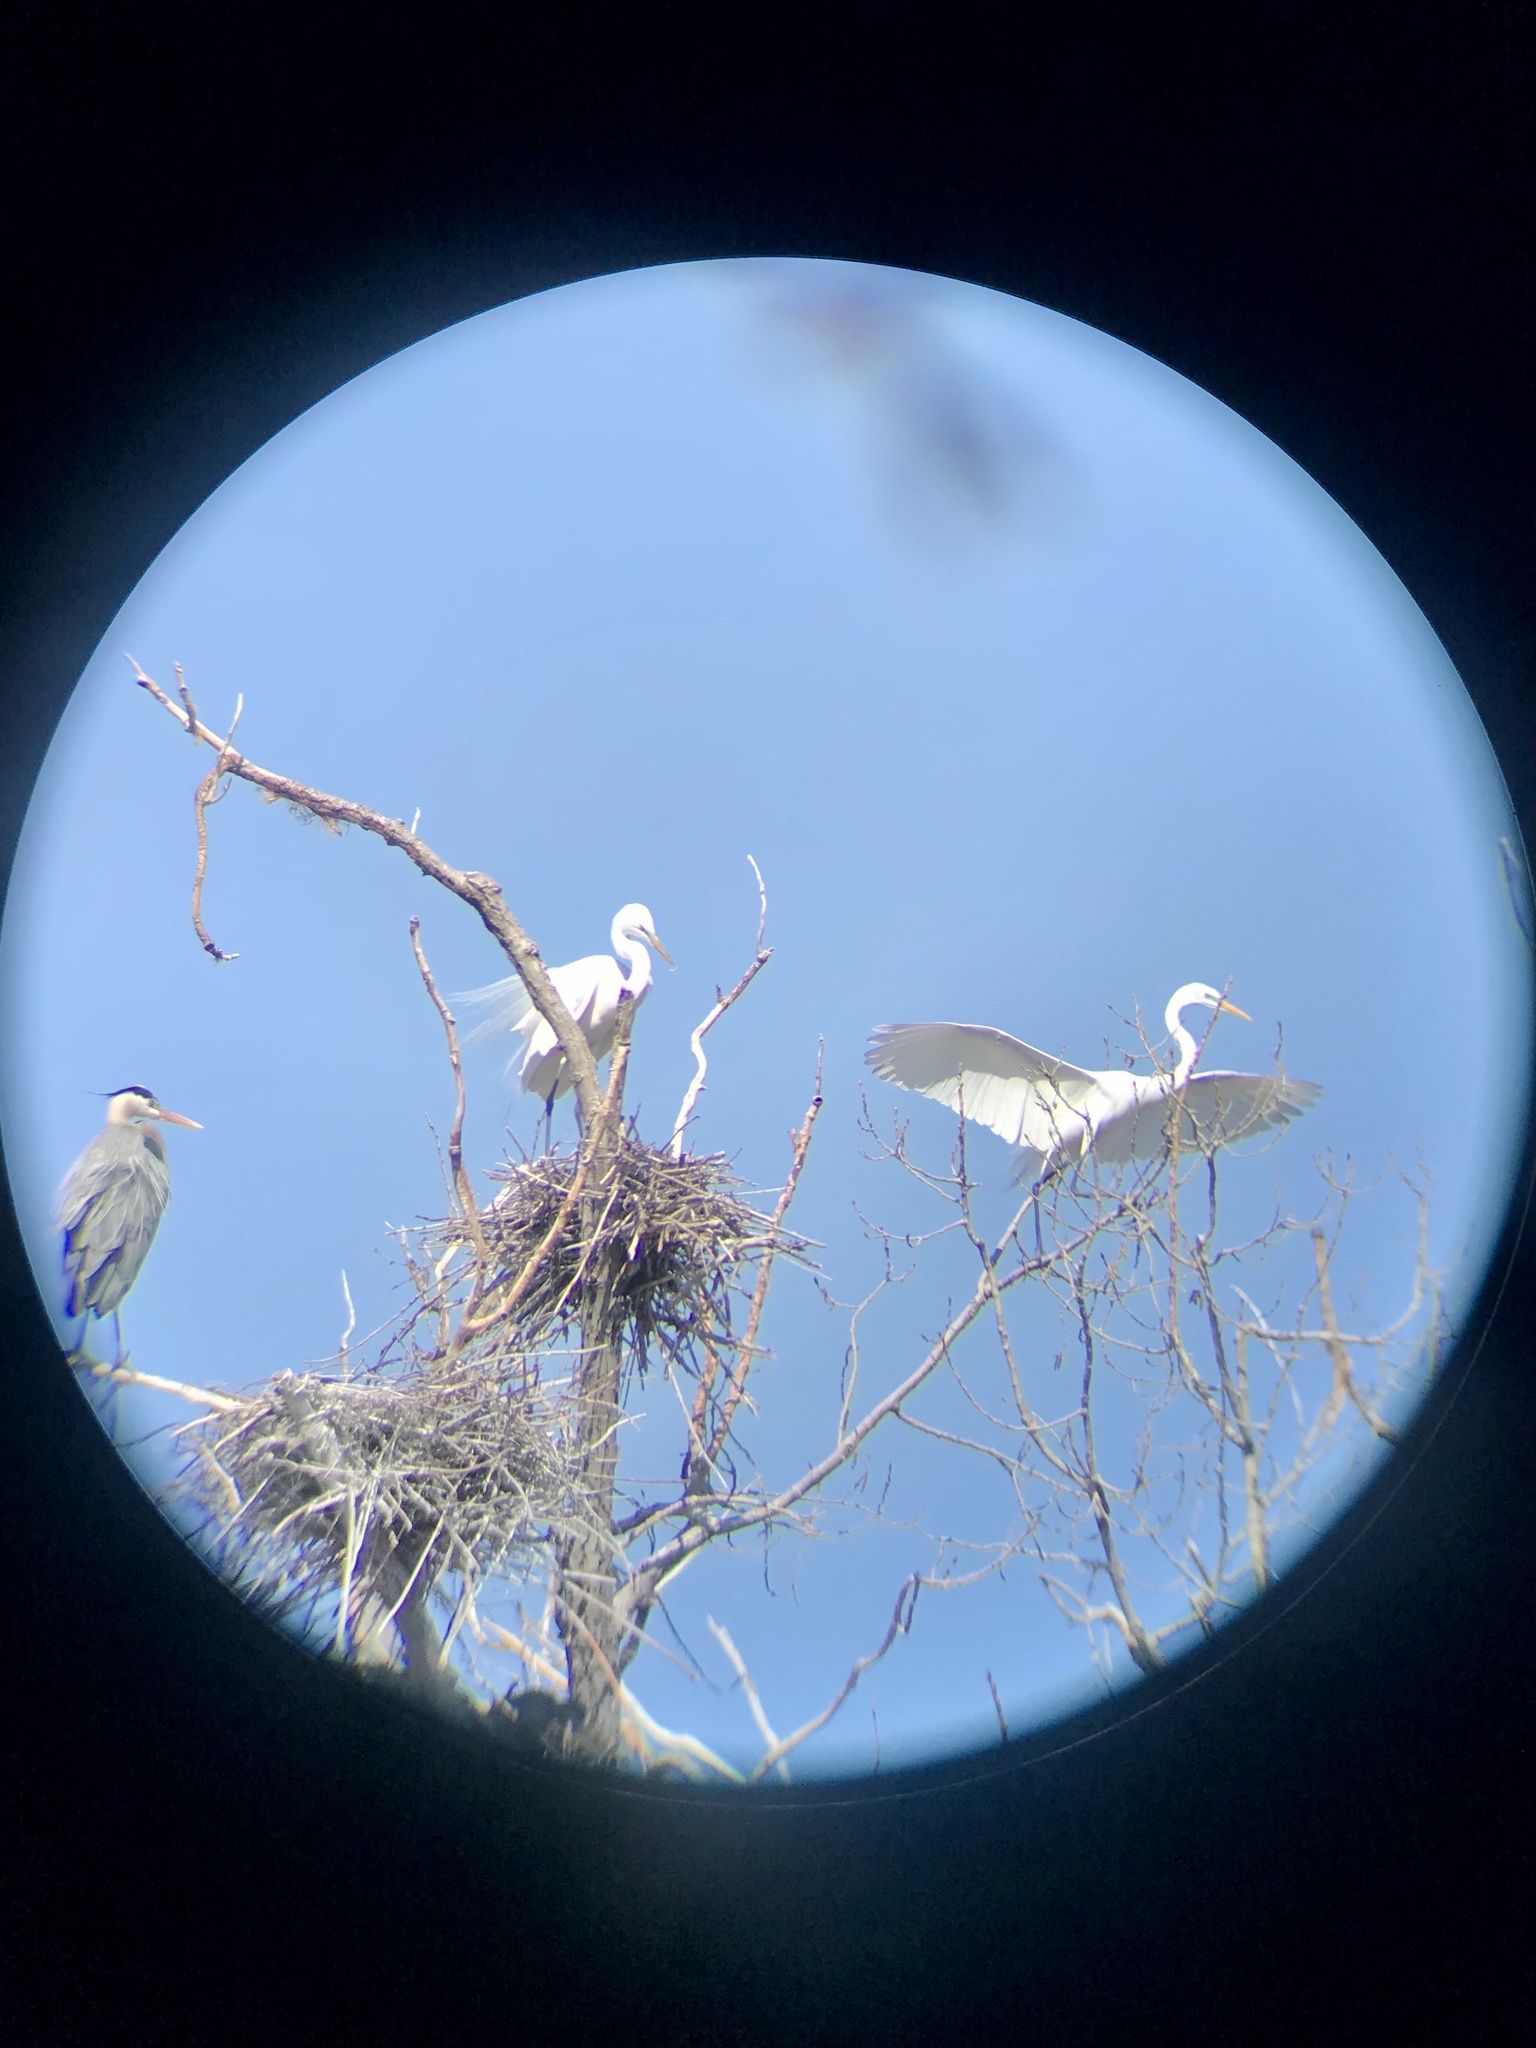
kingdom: Animalia
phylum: Chordata
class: Aves
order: Pelecaniformes
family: Ardeidae
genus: Ardea
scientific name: Ardea alba
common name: Great egret
